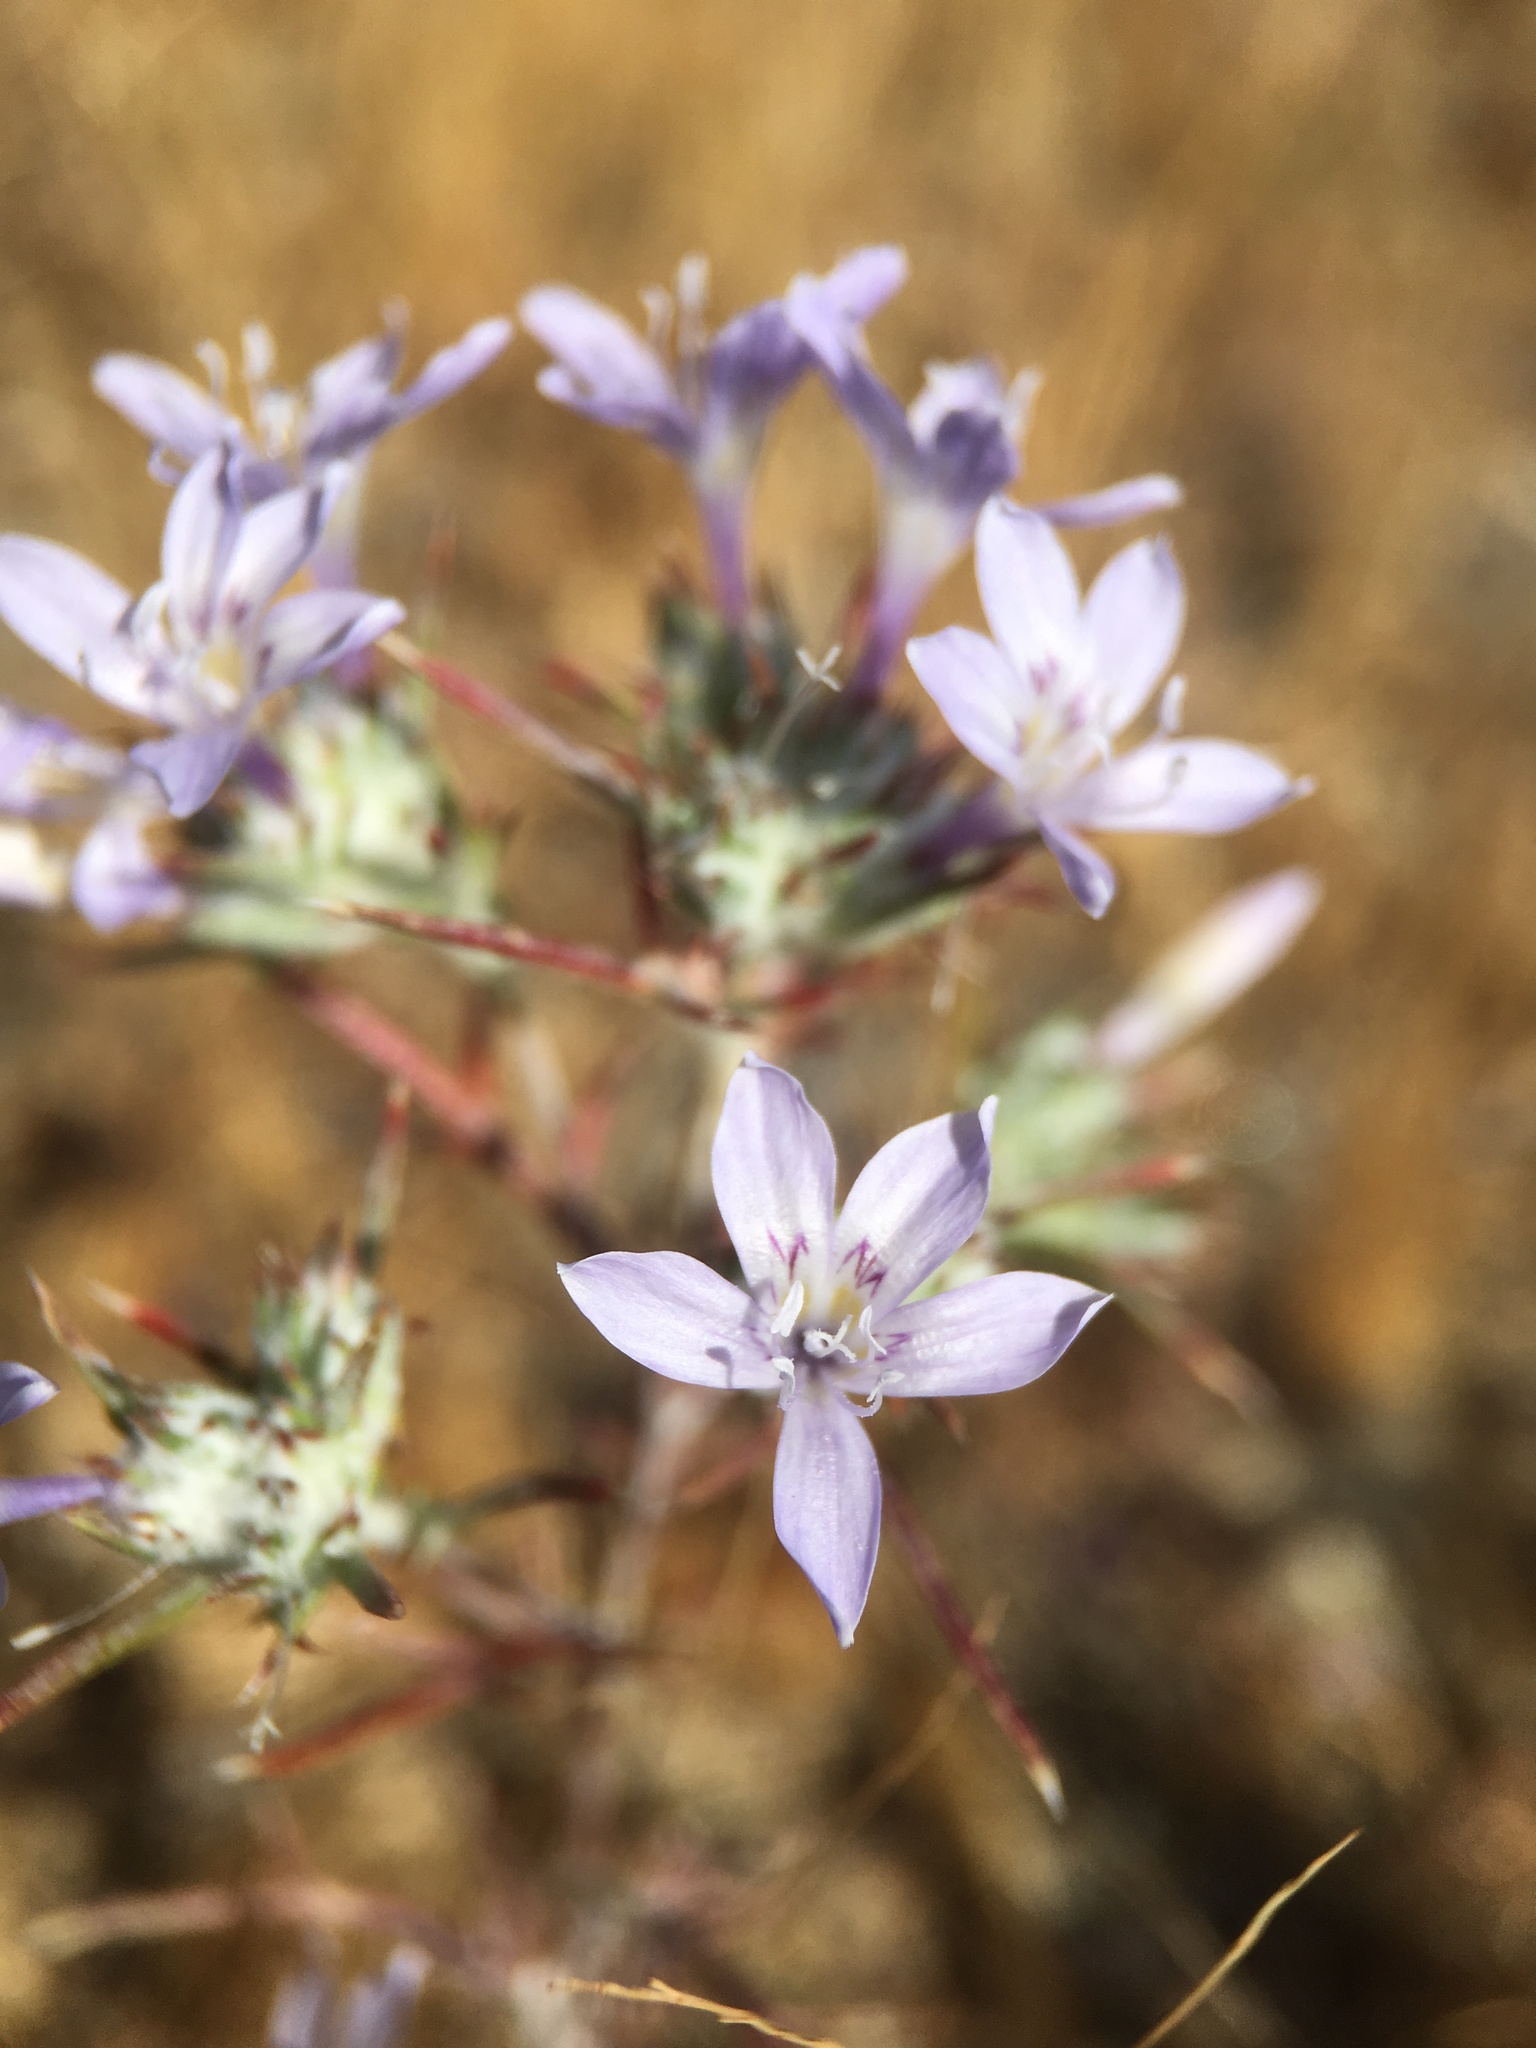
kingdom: Plantae
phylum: Tracheophyta
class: Magnoliopsida
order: Ericales
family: Polemoniaceae
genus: Eriastrum
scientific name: Eriastrum eremicum
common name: Desert eriastrum
